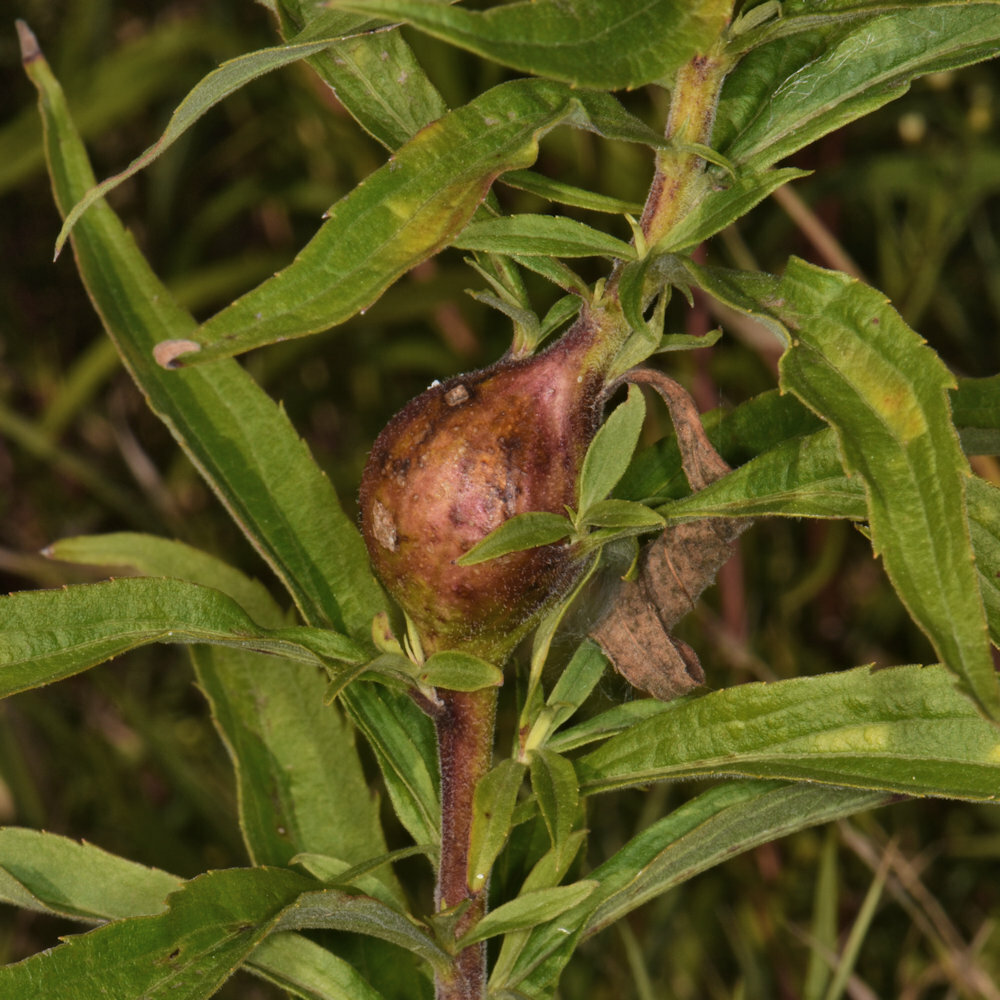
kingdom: Animalia
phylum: Arthropoda
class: Insecta
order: Diptera
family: Tephritidae
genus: Eurosta
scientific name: Eurosta solidaginis
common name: Goldenrod gall fly
